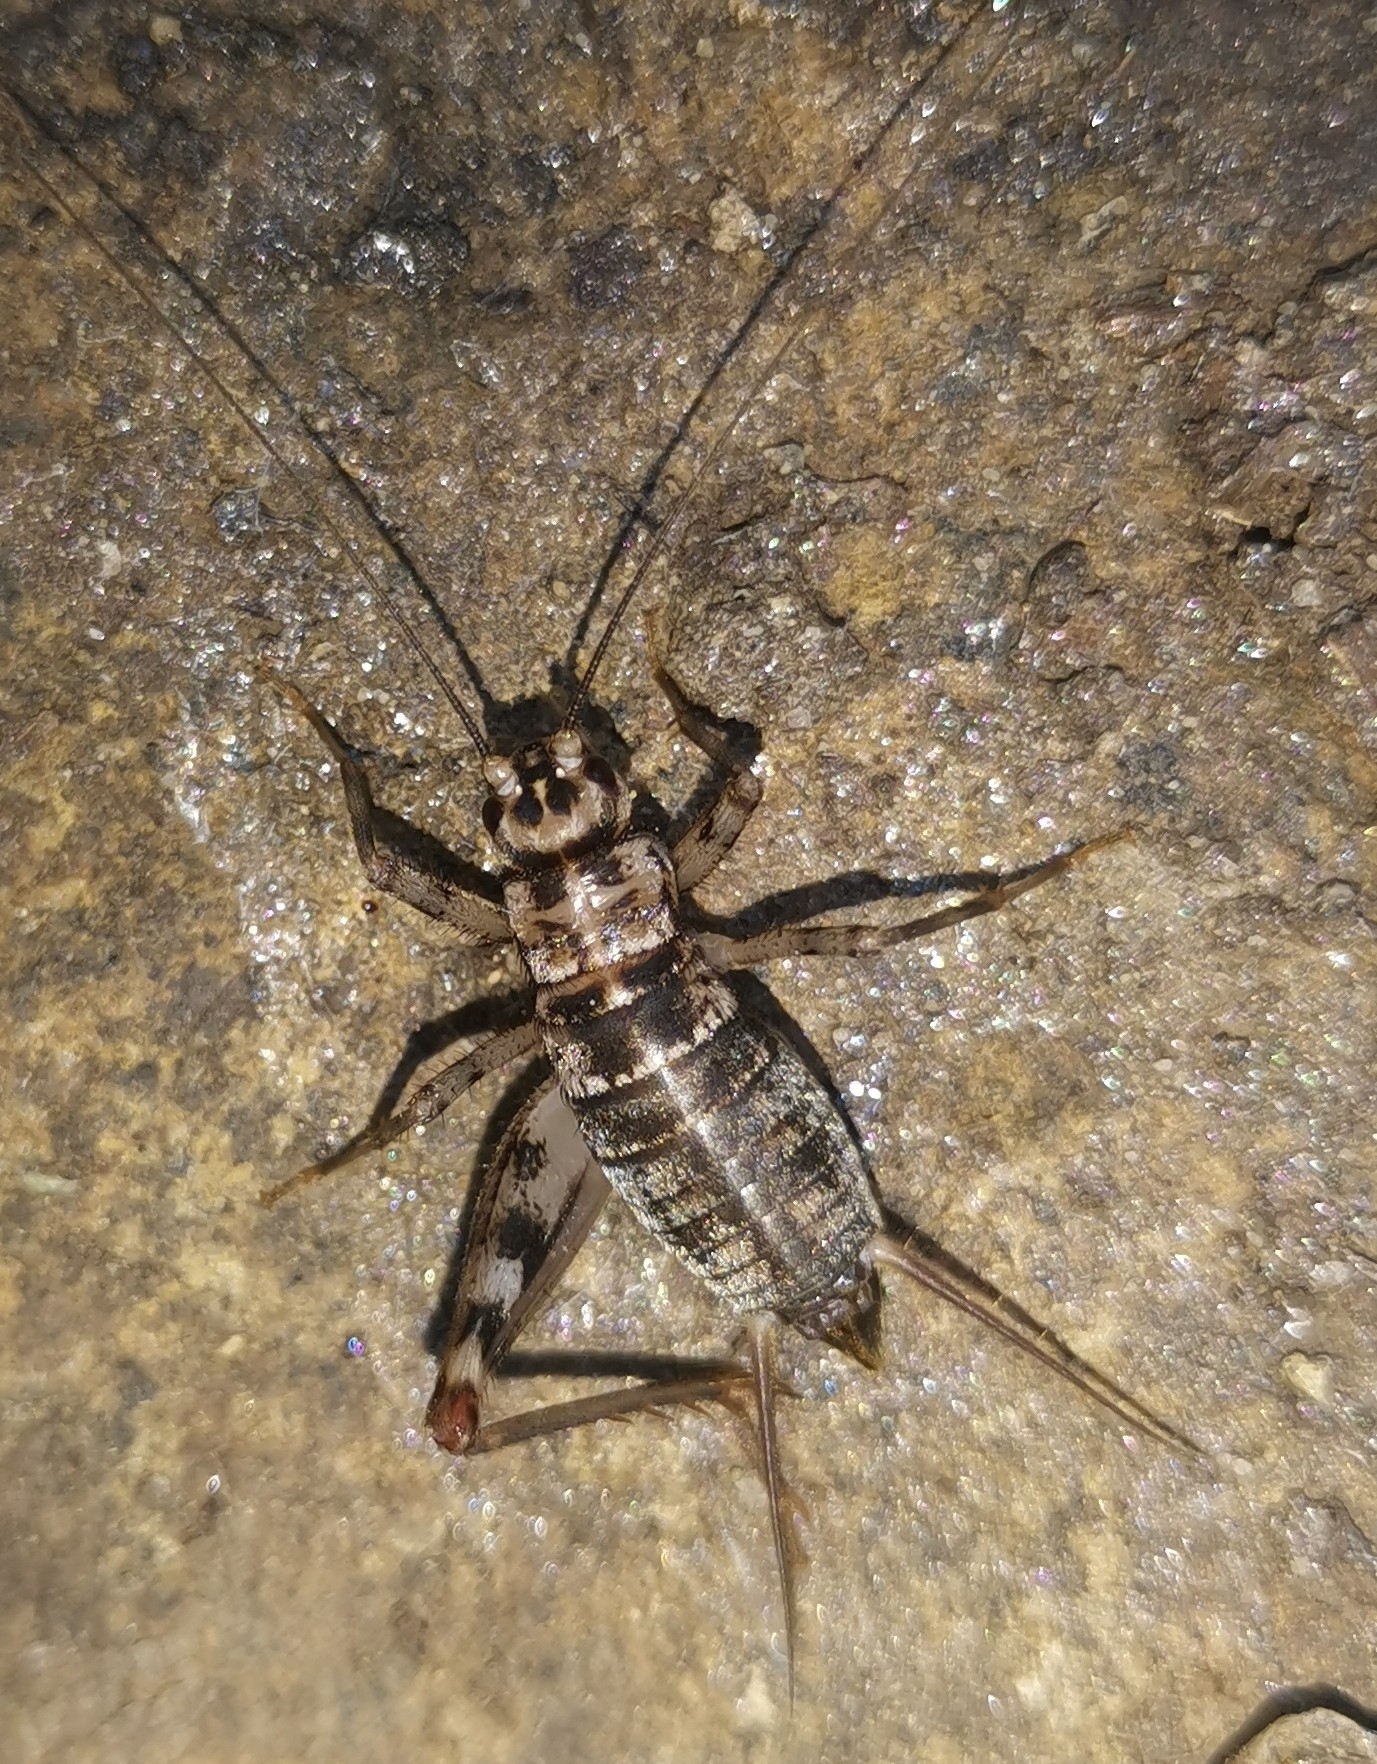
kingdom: Animalia
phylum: Arthropoda
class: Insecta
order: Orthoptera
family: Gryllidae
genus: Gryllomorpha
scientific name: Gryllomorpha dalmatina
